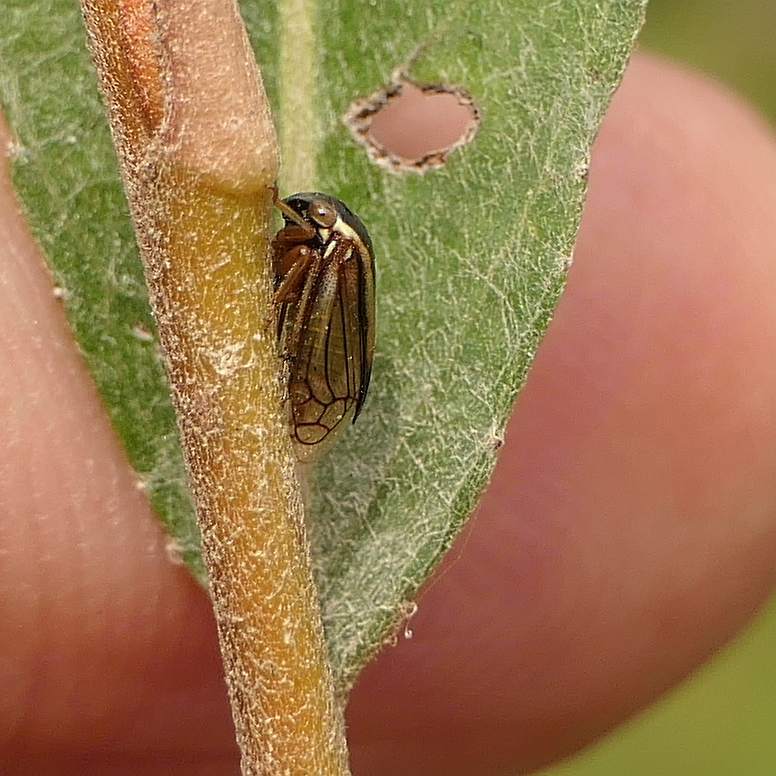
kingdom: Animalia
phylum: Arthropoda
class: Insecta
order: Hemiptera
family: Membracidae
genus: Acutalis
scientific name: Acutalis tartarea
